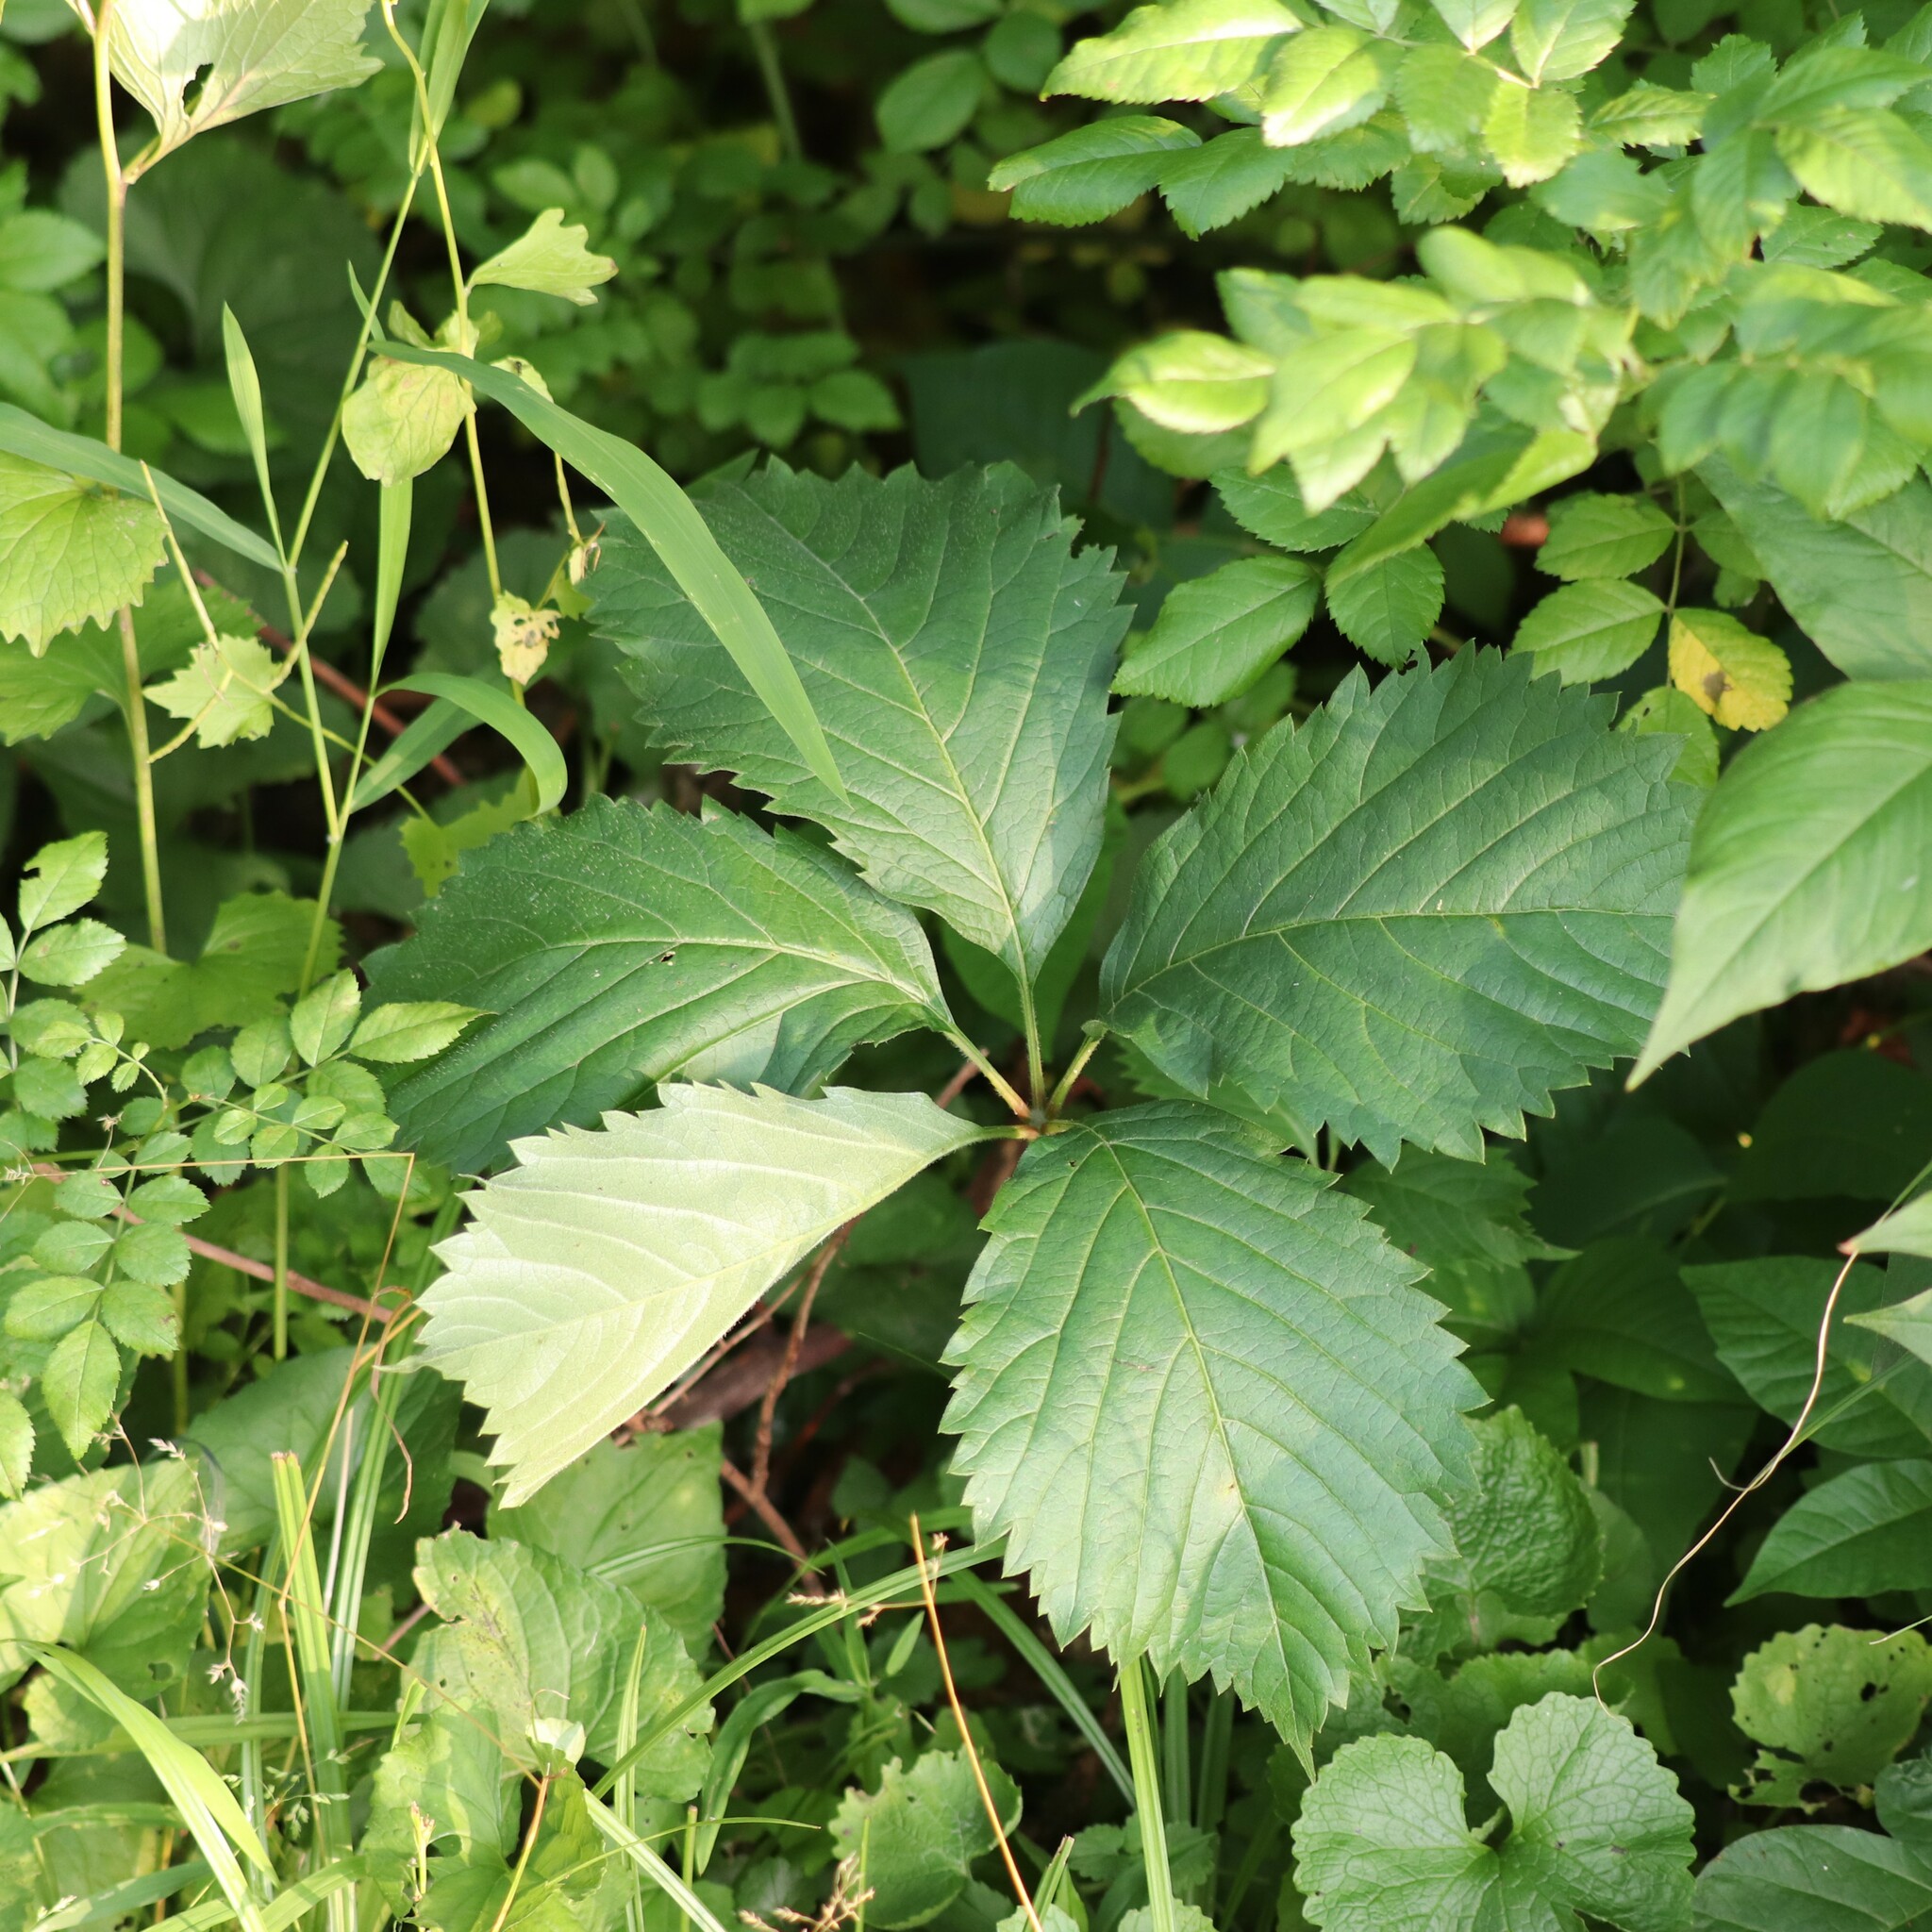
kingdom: Plantae
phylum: Tracheophyta
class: Magnoliopsida
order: Vitales
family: Vitaceae
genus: Parthenocissus
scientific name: Parthenocissus inserta
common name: False virginia-creeper
